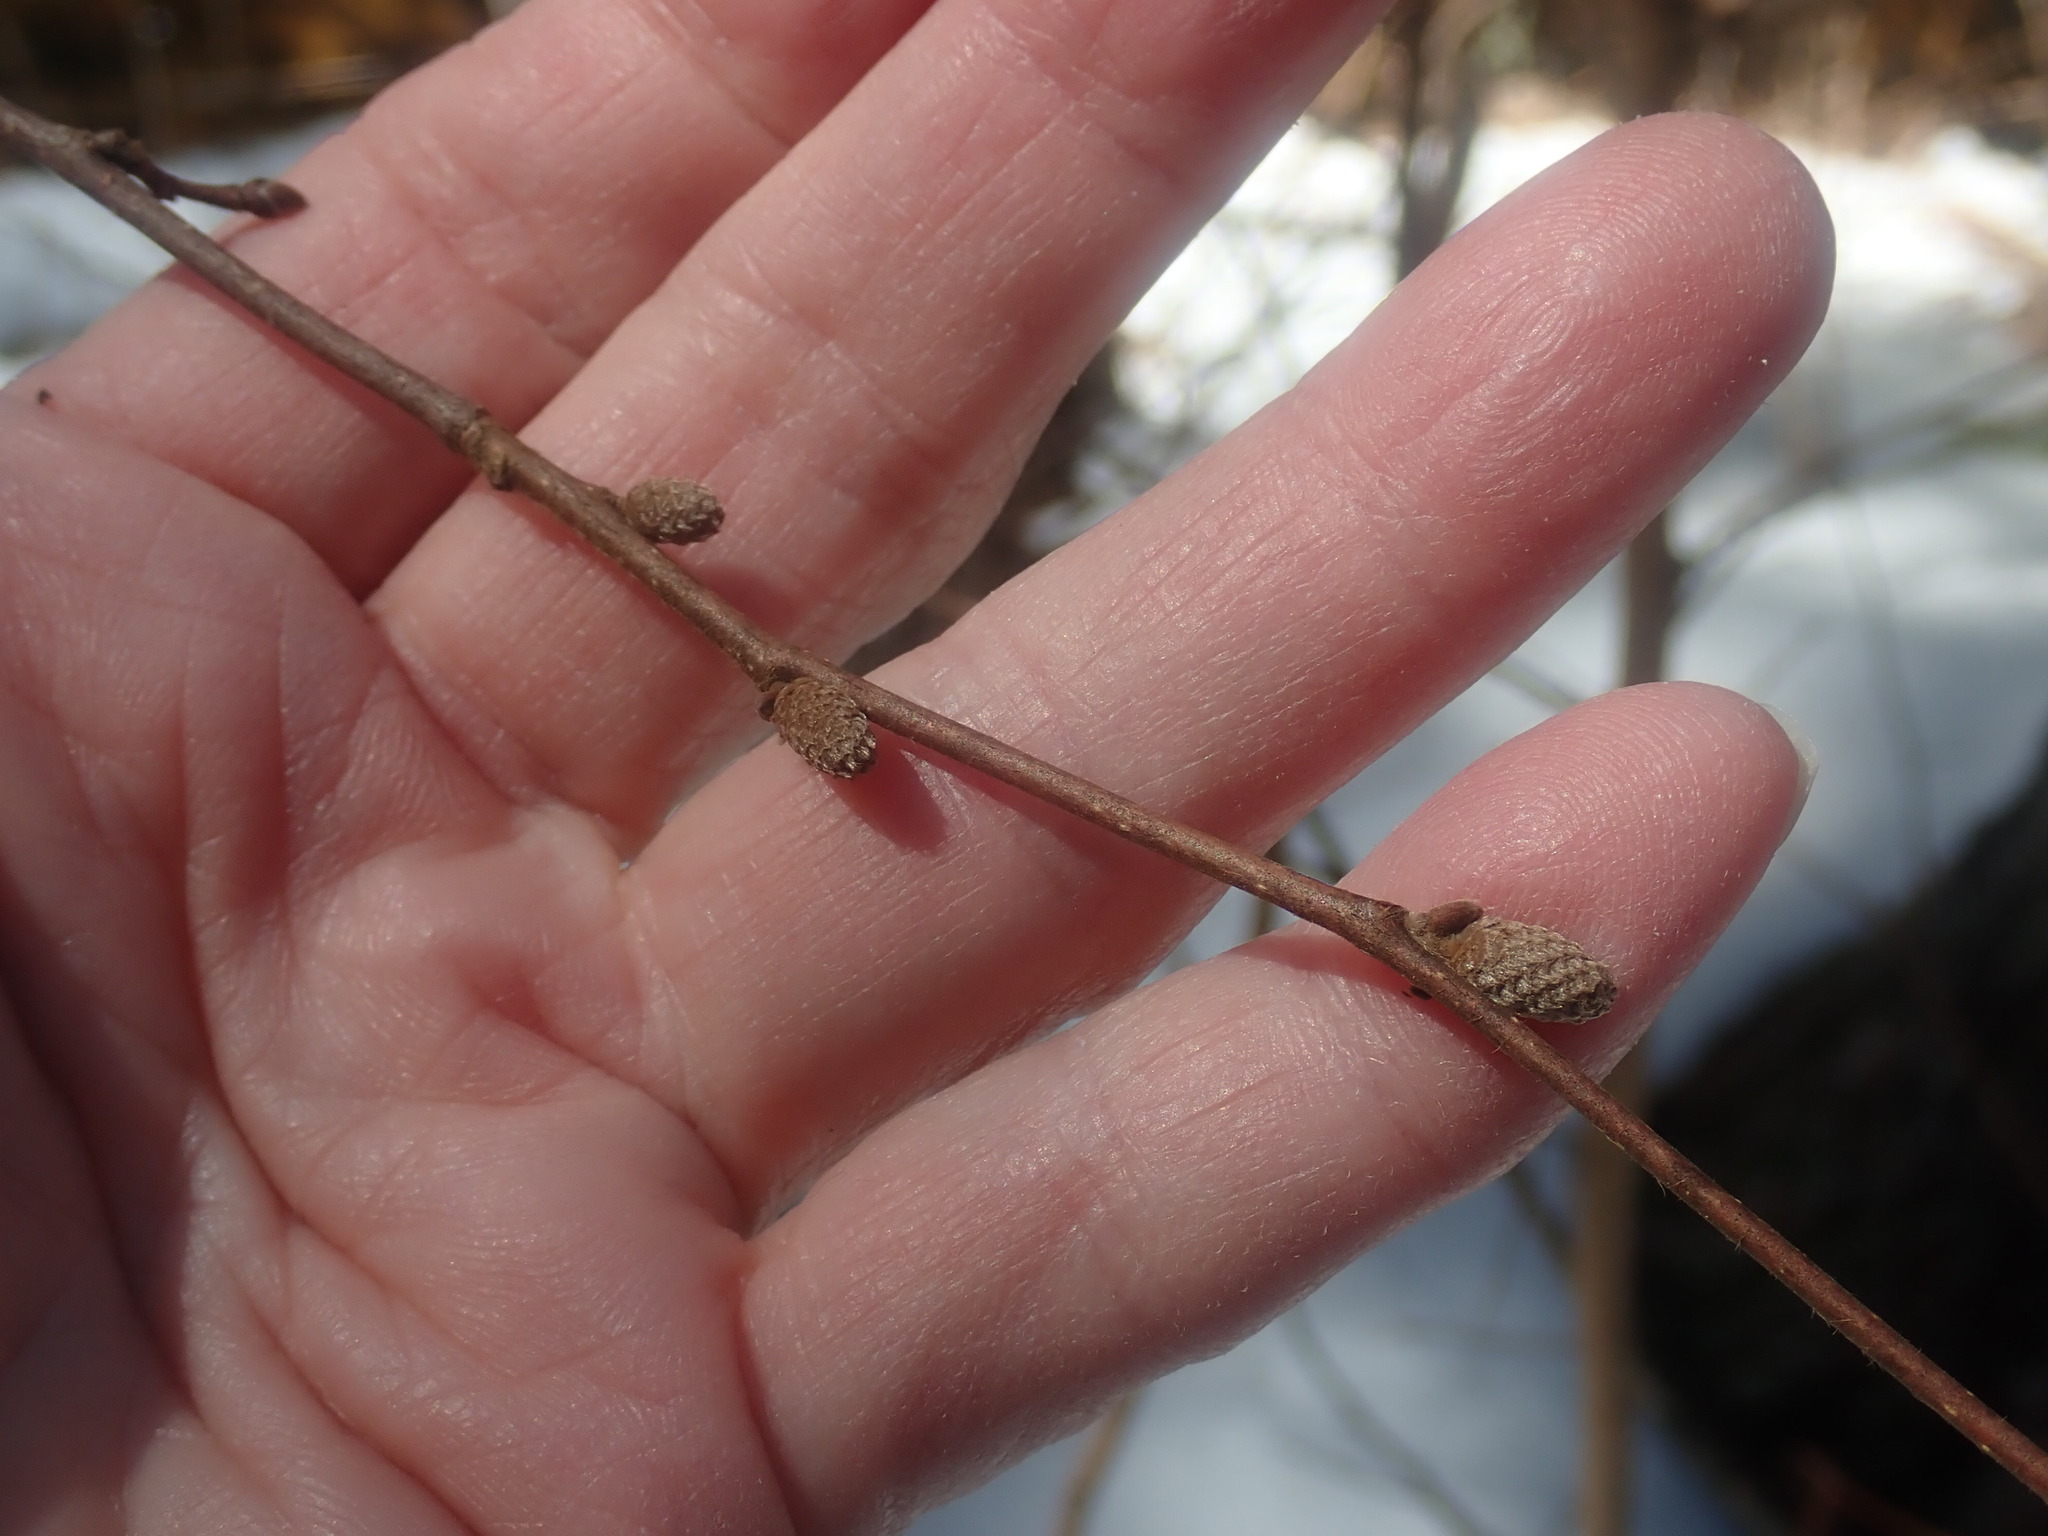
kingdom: Plantae
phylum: Tracheophyta
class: Magnoliopsida
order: Fagales
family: Betulaceae
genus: Corylus
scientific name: Corylus americana
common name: American hazel
